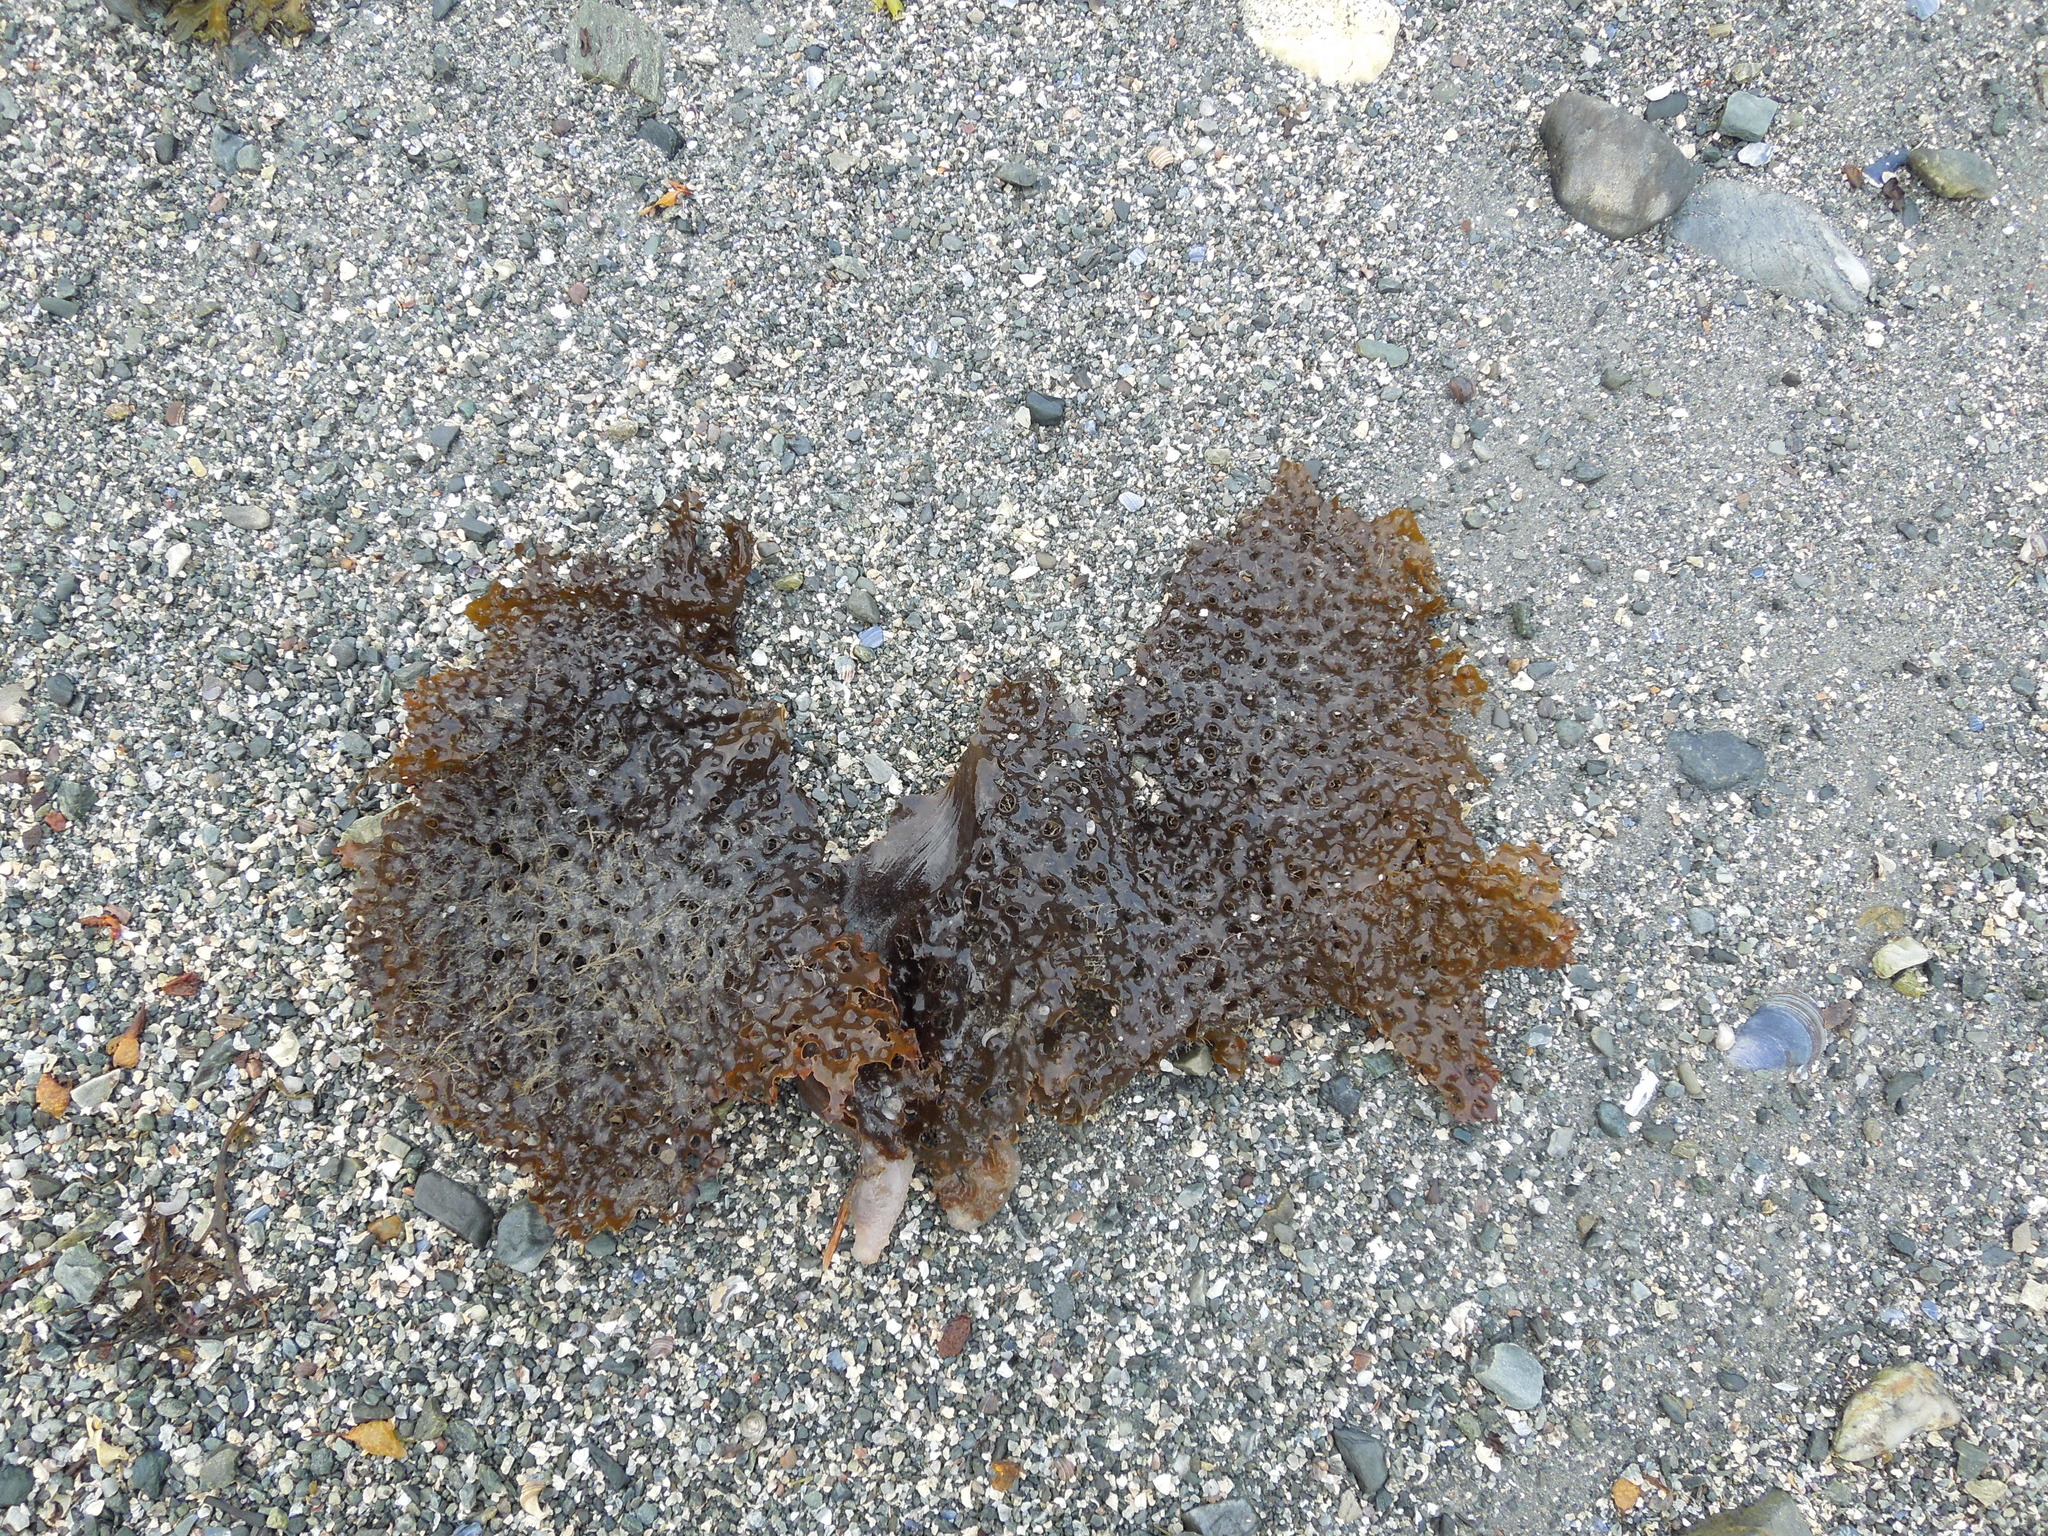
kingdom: Chromista
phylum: Ochrophyta
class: Phaeophyceae
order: Laminariales
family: Costariaceae
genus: Agarum
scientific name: Agarum clathratum
